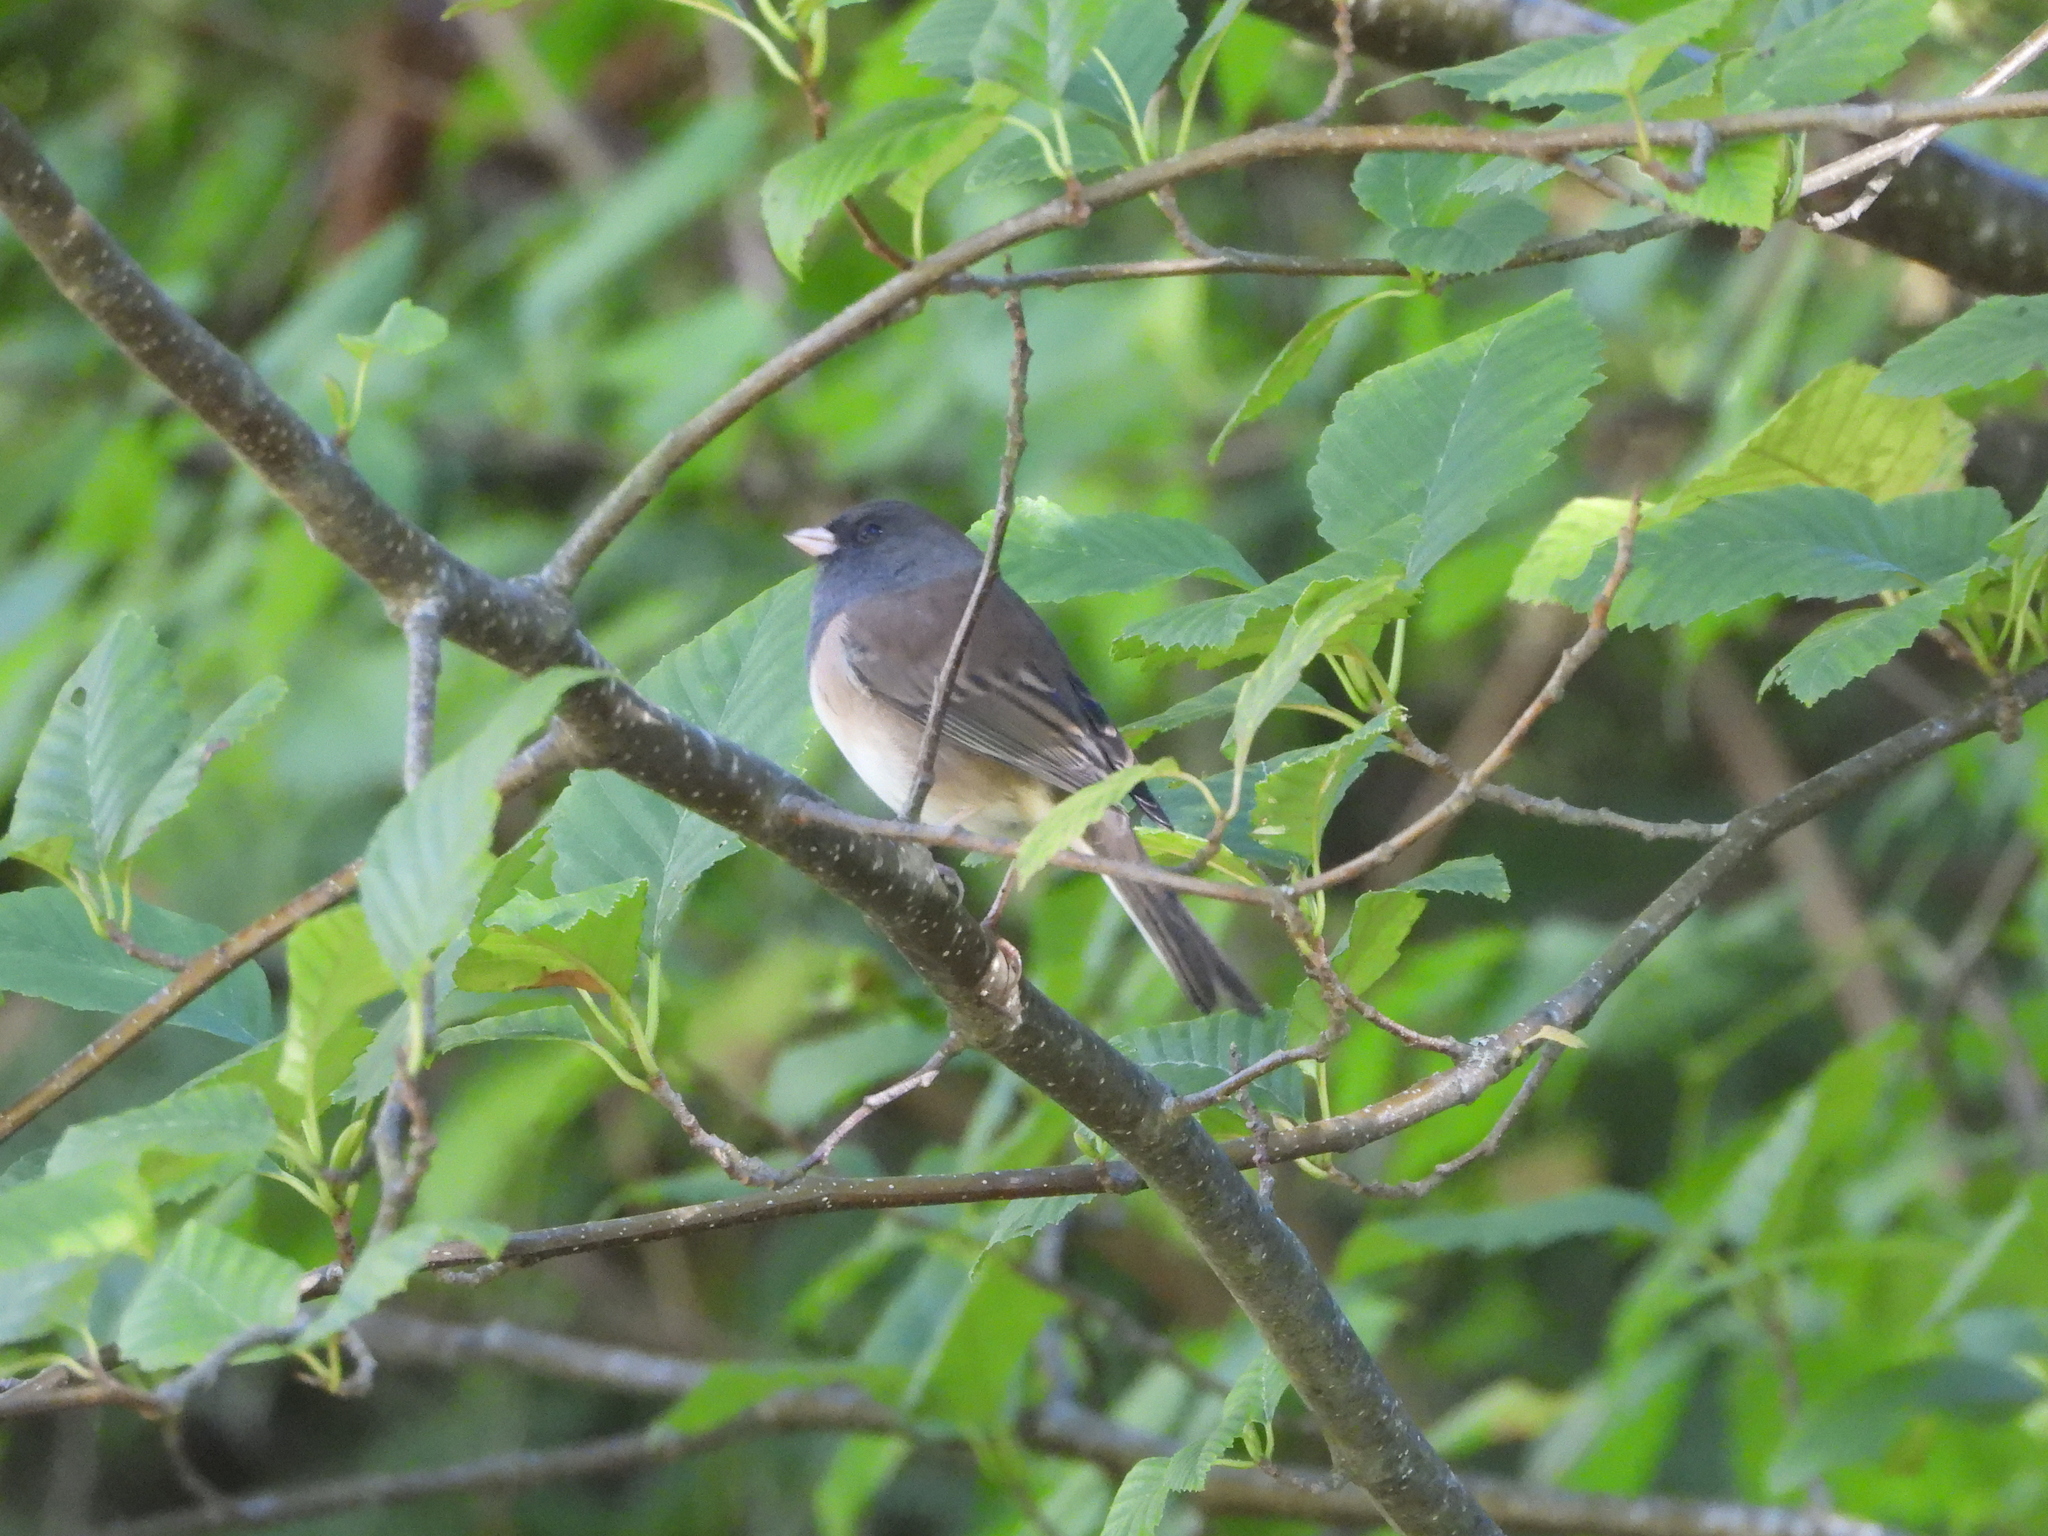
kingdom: Animalia
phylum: Chordata
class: Aves
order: Passeriformes
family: Passerellidae
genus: Junco
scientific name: Junco hyemalis
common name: Dark-eyed junco
